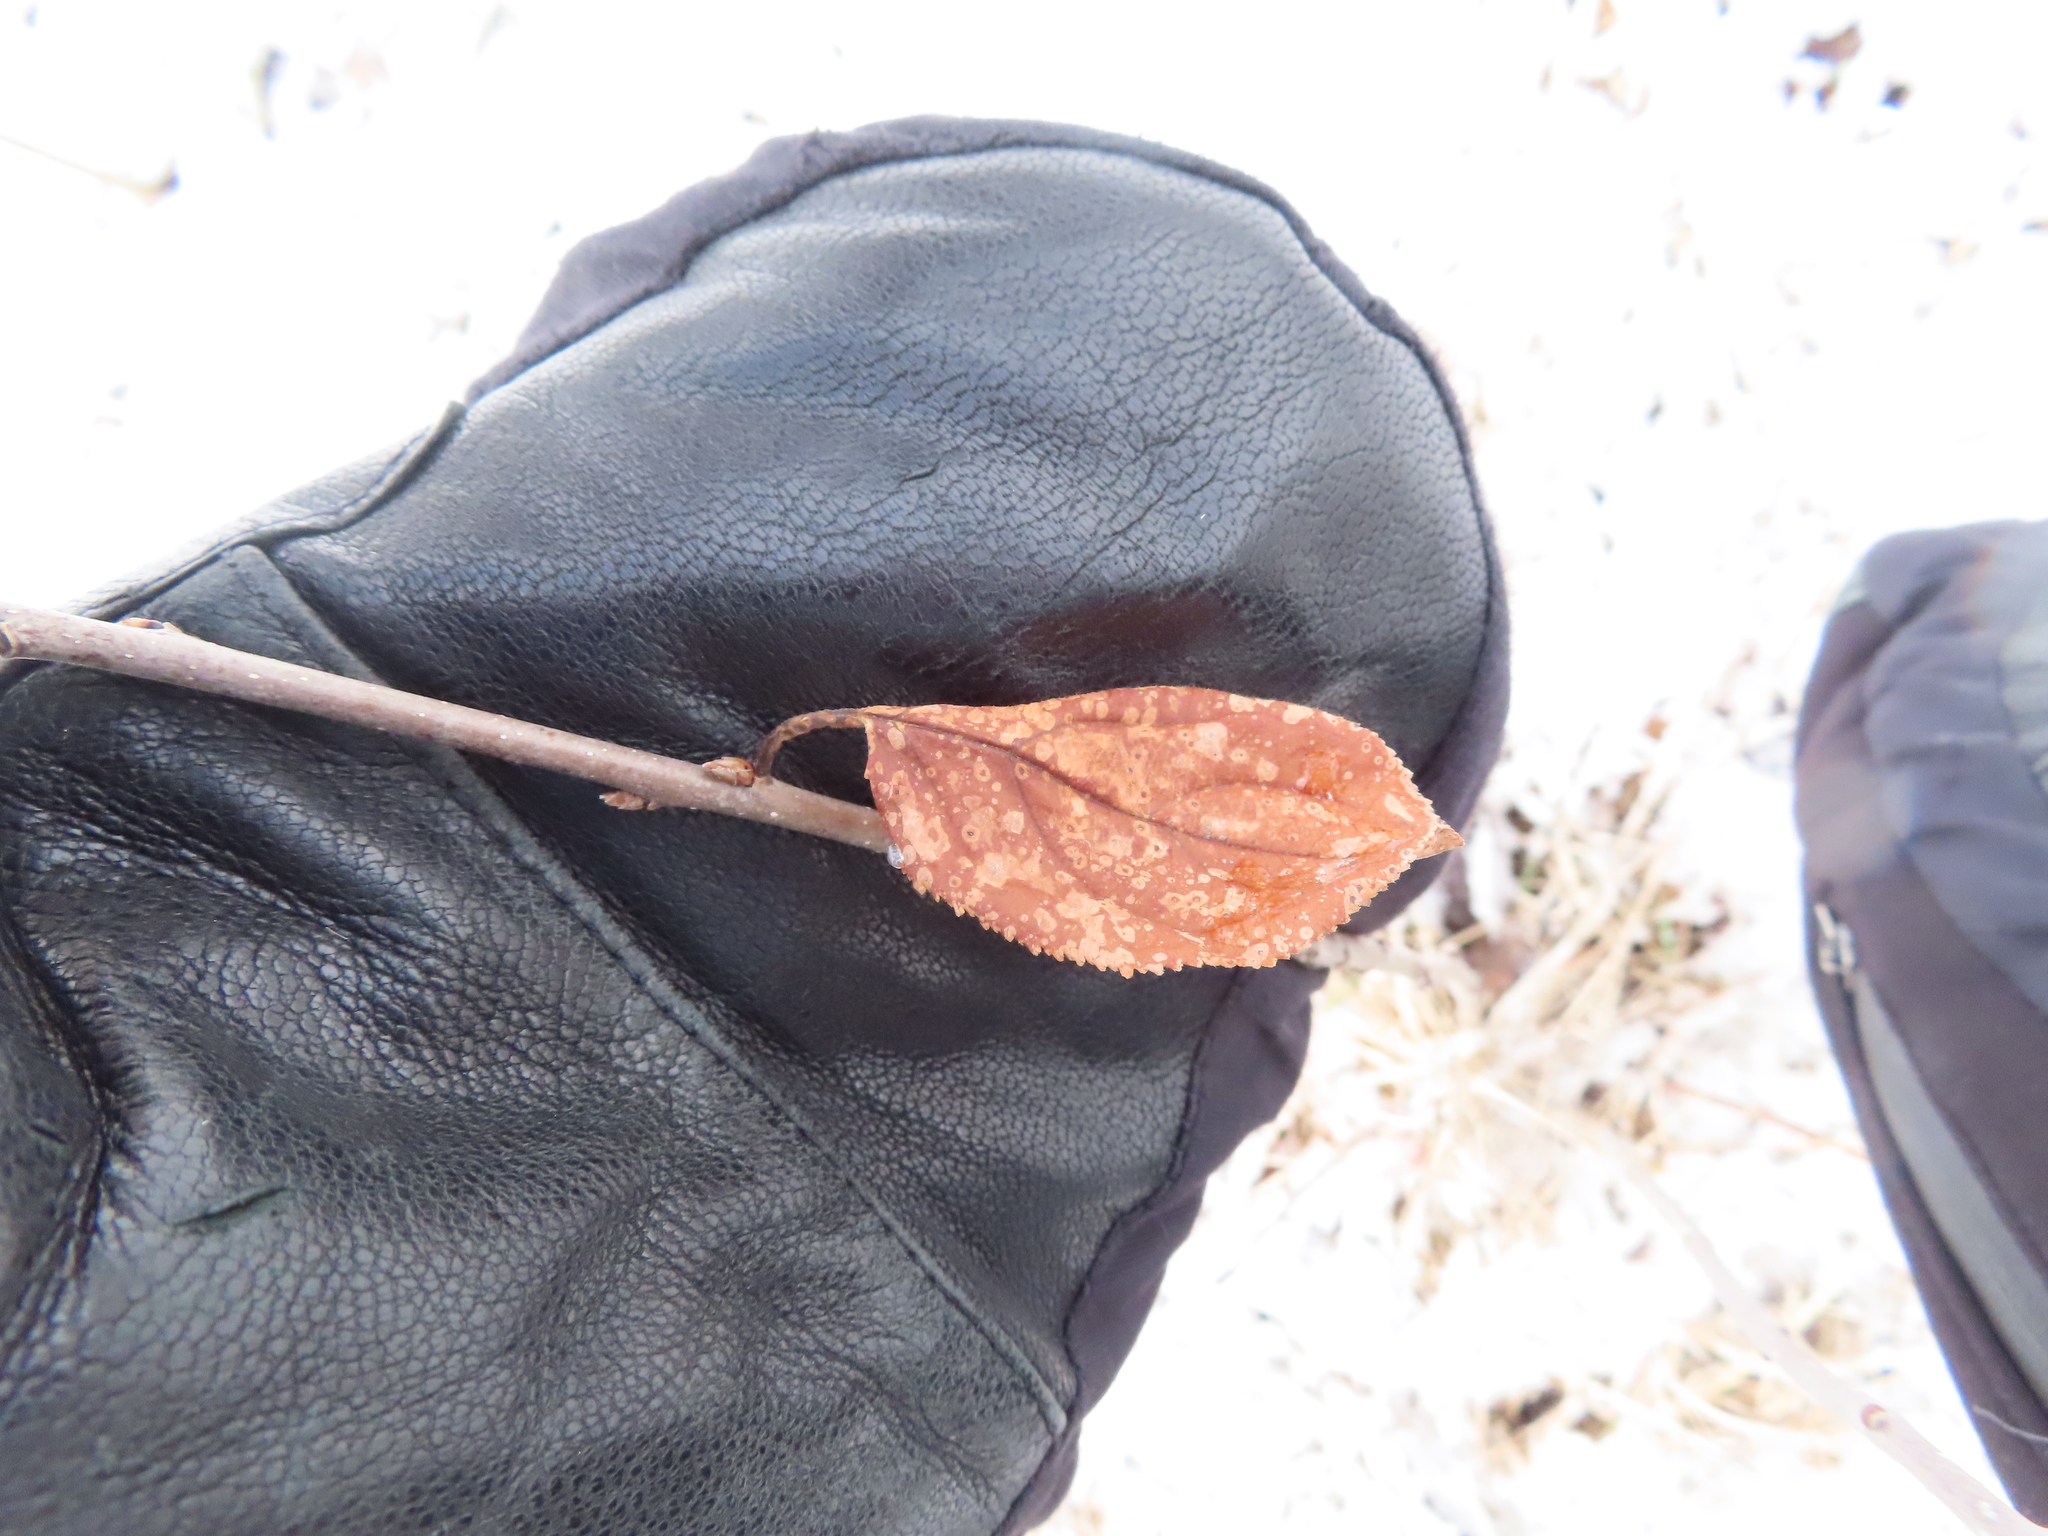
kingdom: Plantae
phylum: Tracheophyta
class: Magnoliopsida
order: Rosales
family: Rhamnaceae
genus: Rhamnus
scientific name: Rhamnus cathartica
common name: Common buckthorn
